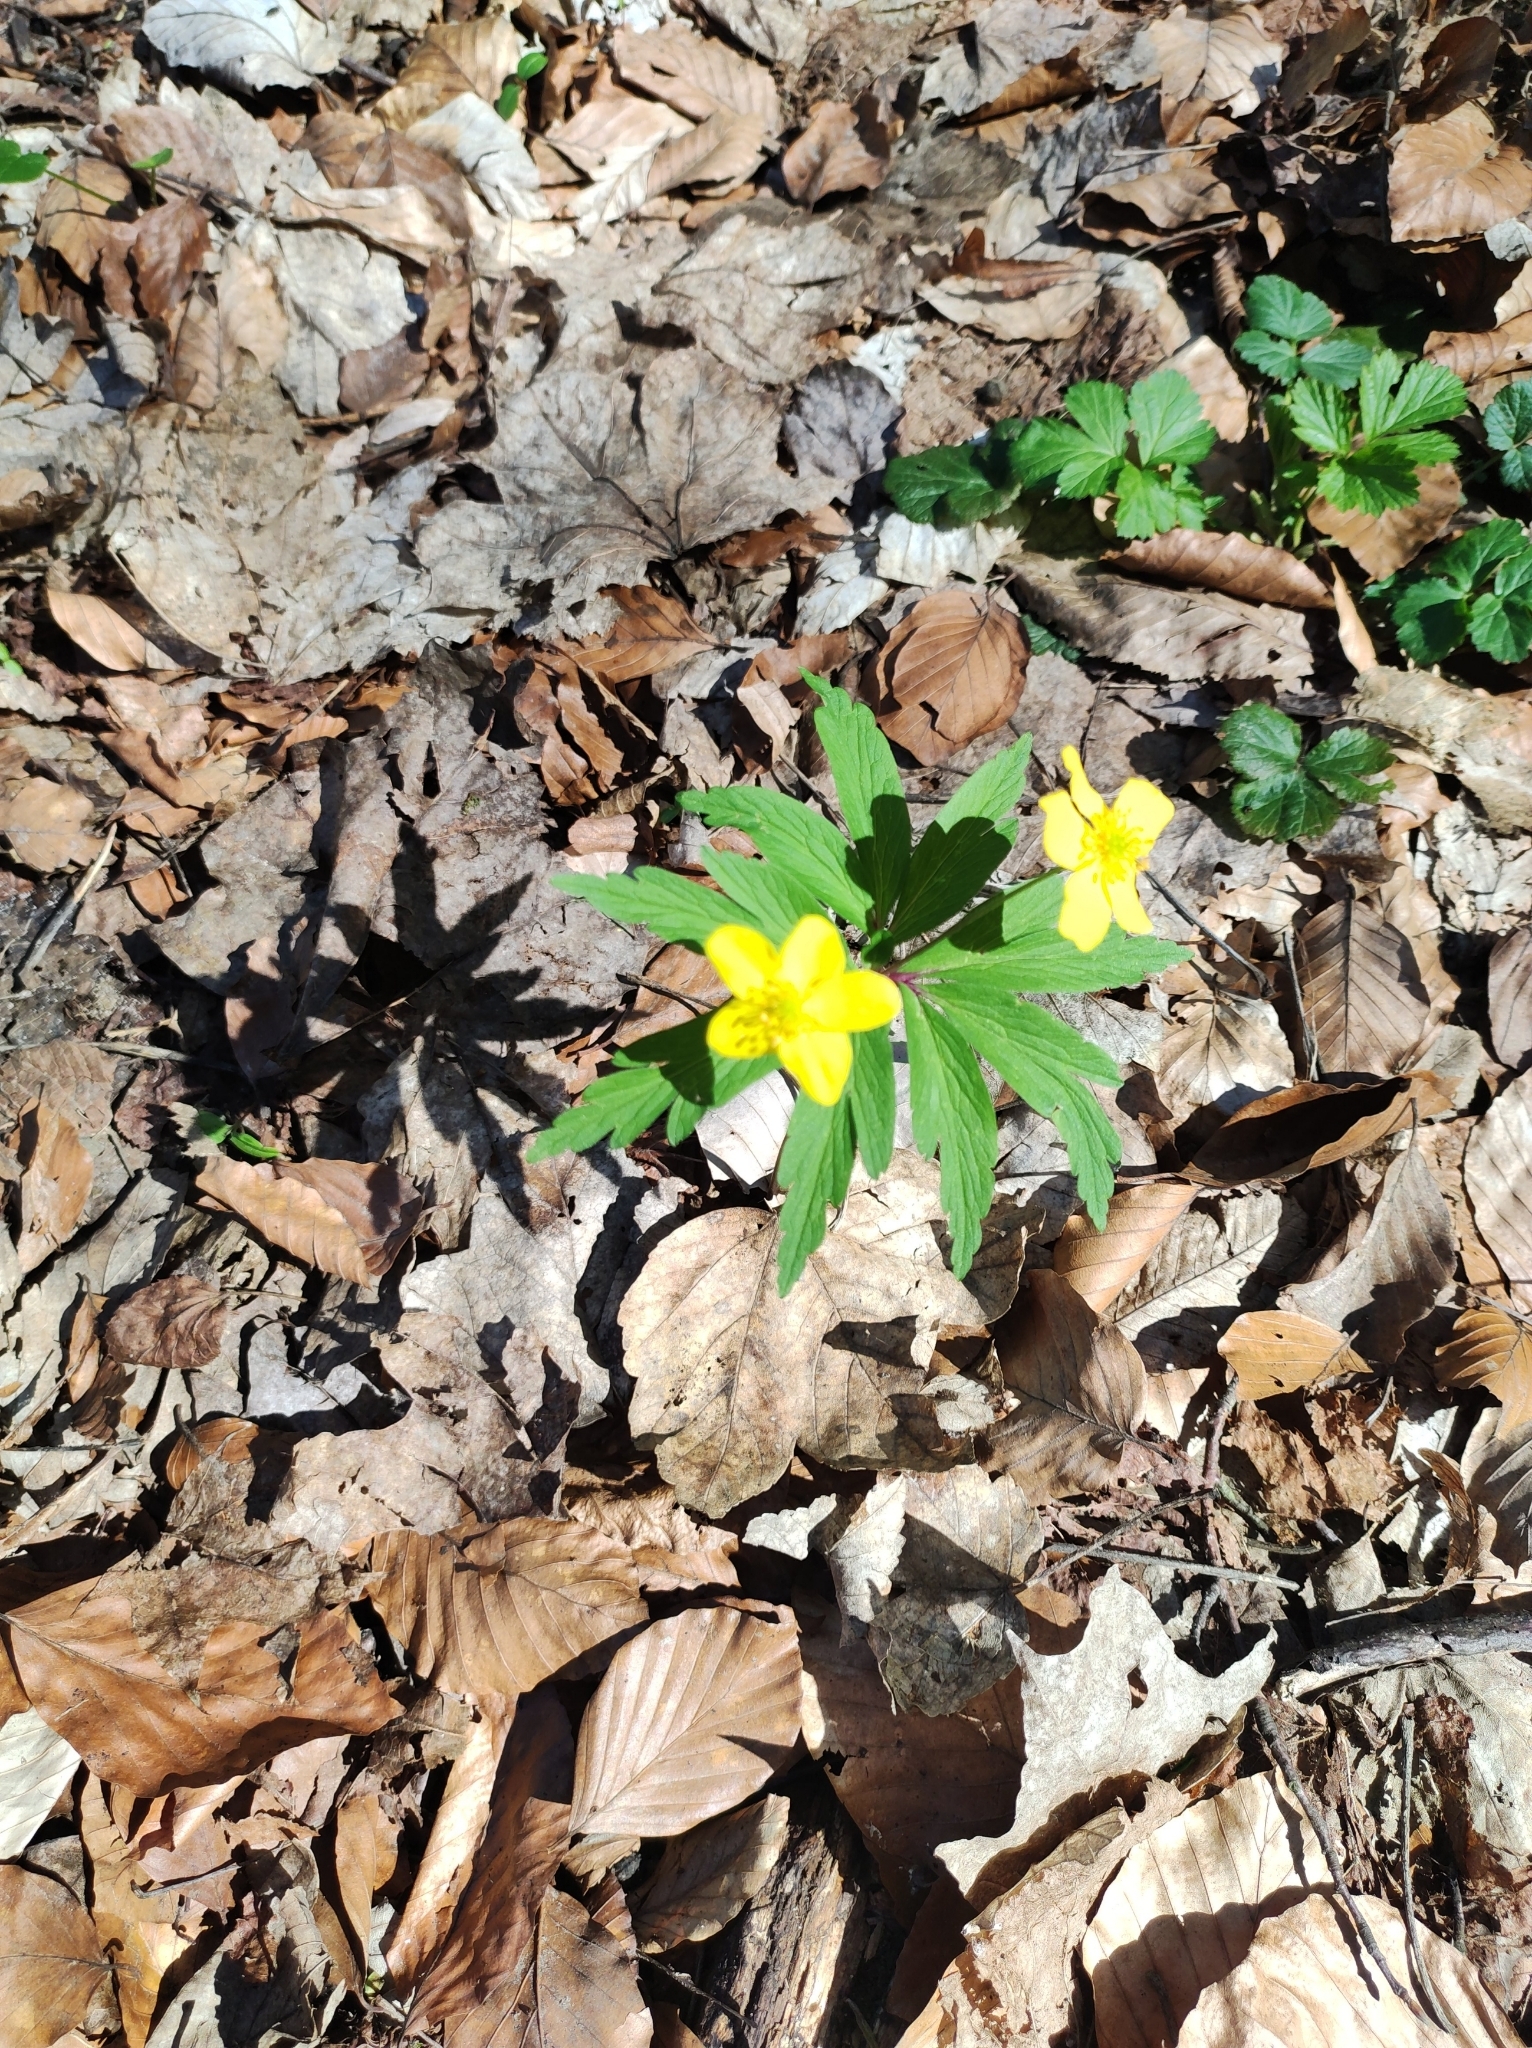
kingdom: Plantae
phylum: Tracheophyta
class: Magnoliopsida
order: Ranunculales
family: Ranunculaceae
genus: Anemone
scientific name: Anemone ranunculoides
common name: Yellow anemone
